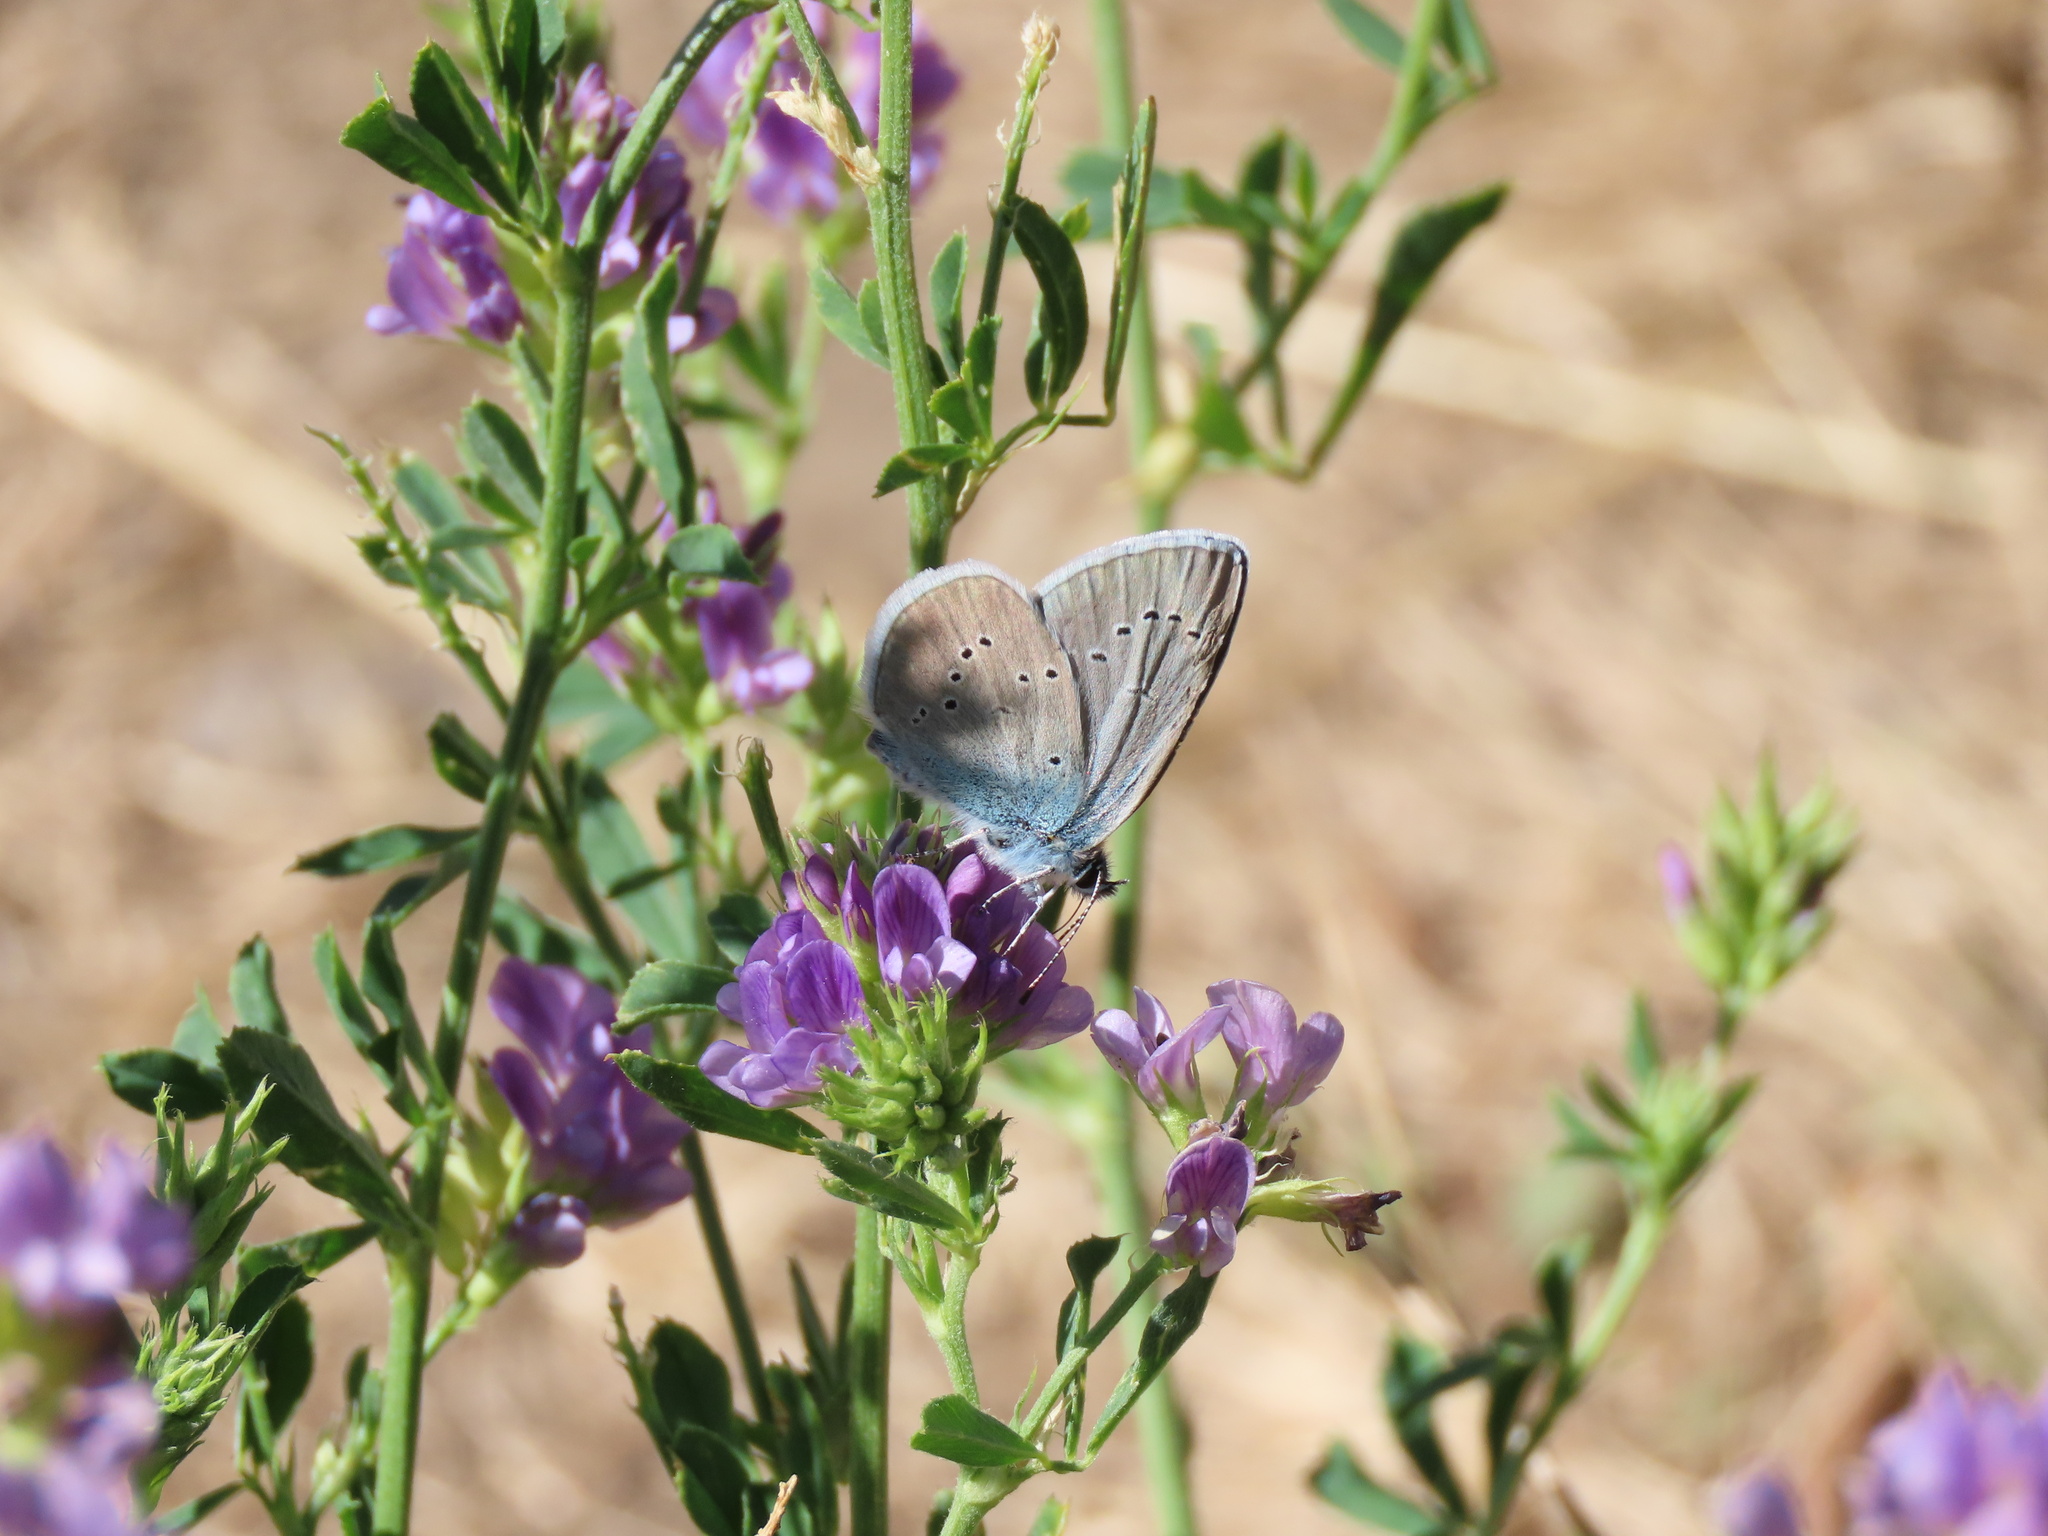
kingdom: Animalia
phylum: Arthropoda
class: Insecta
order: Lepidoptera
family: Lycaenidae
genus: Cyaniris
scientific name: Cyaniris semiargus
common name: Mazarine blue
